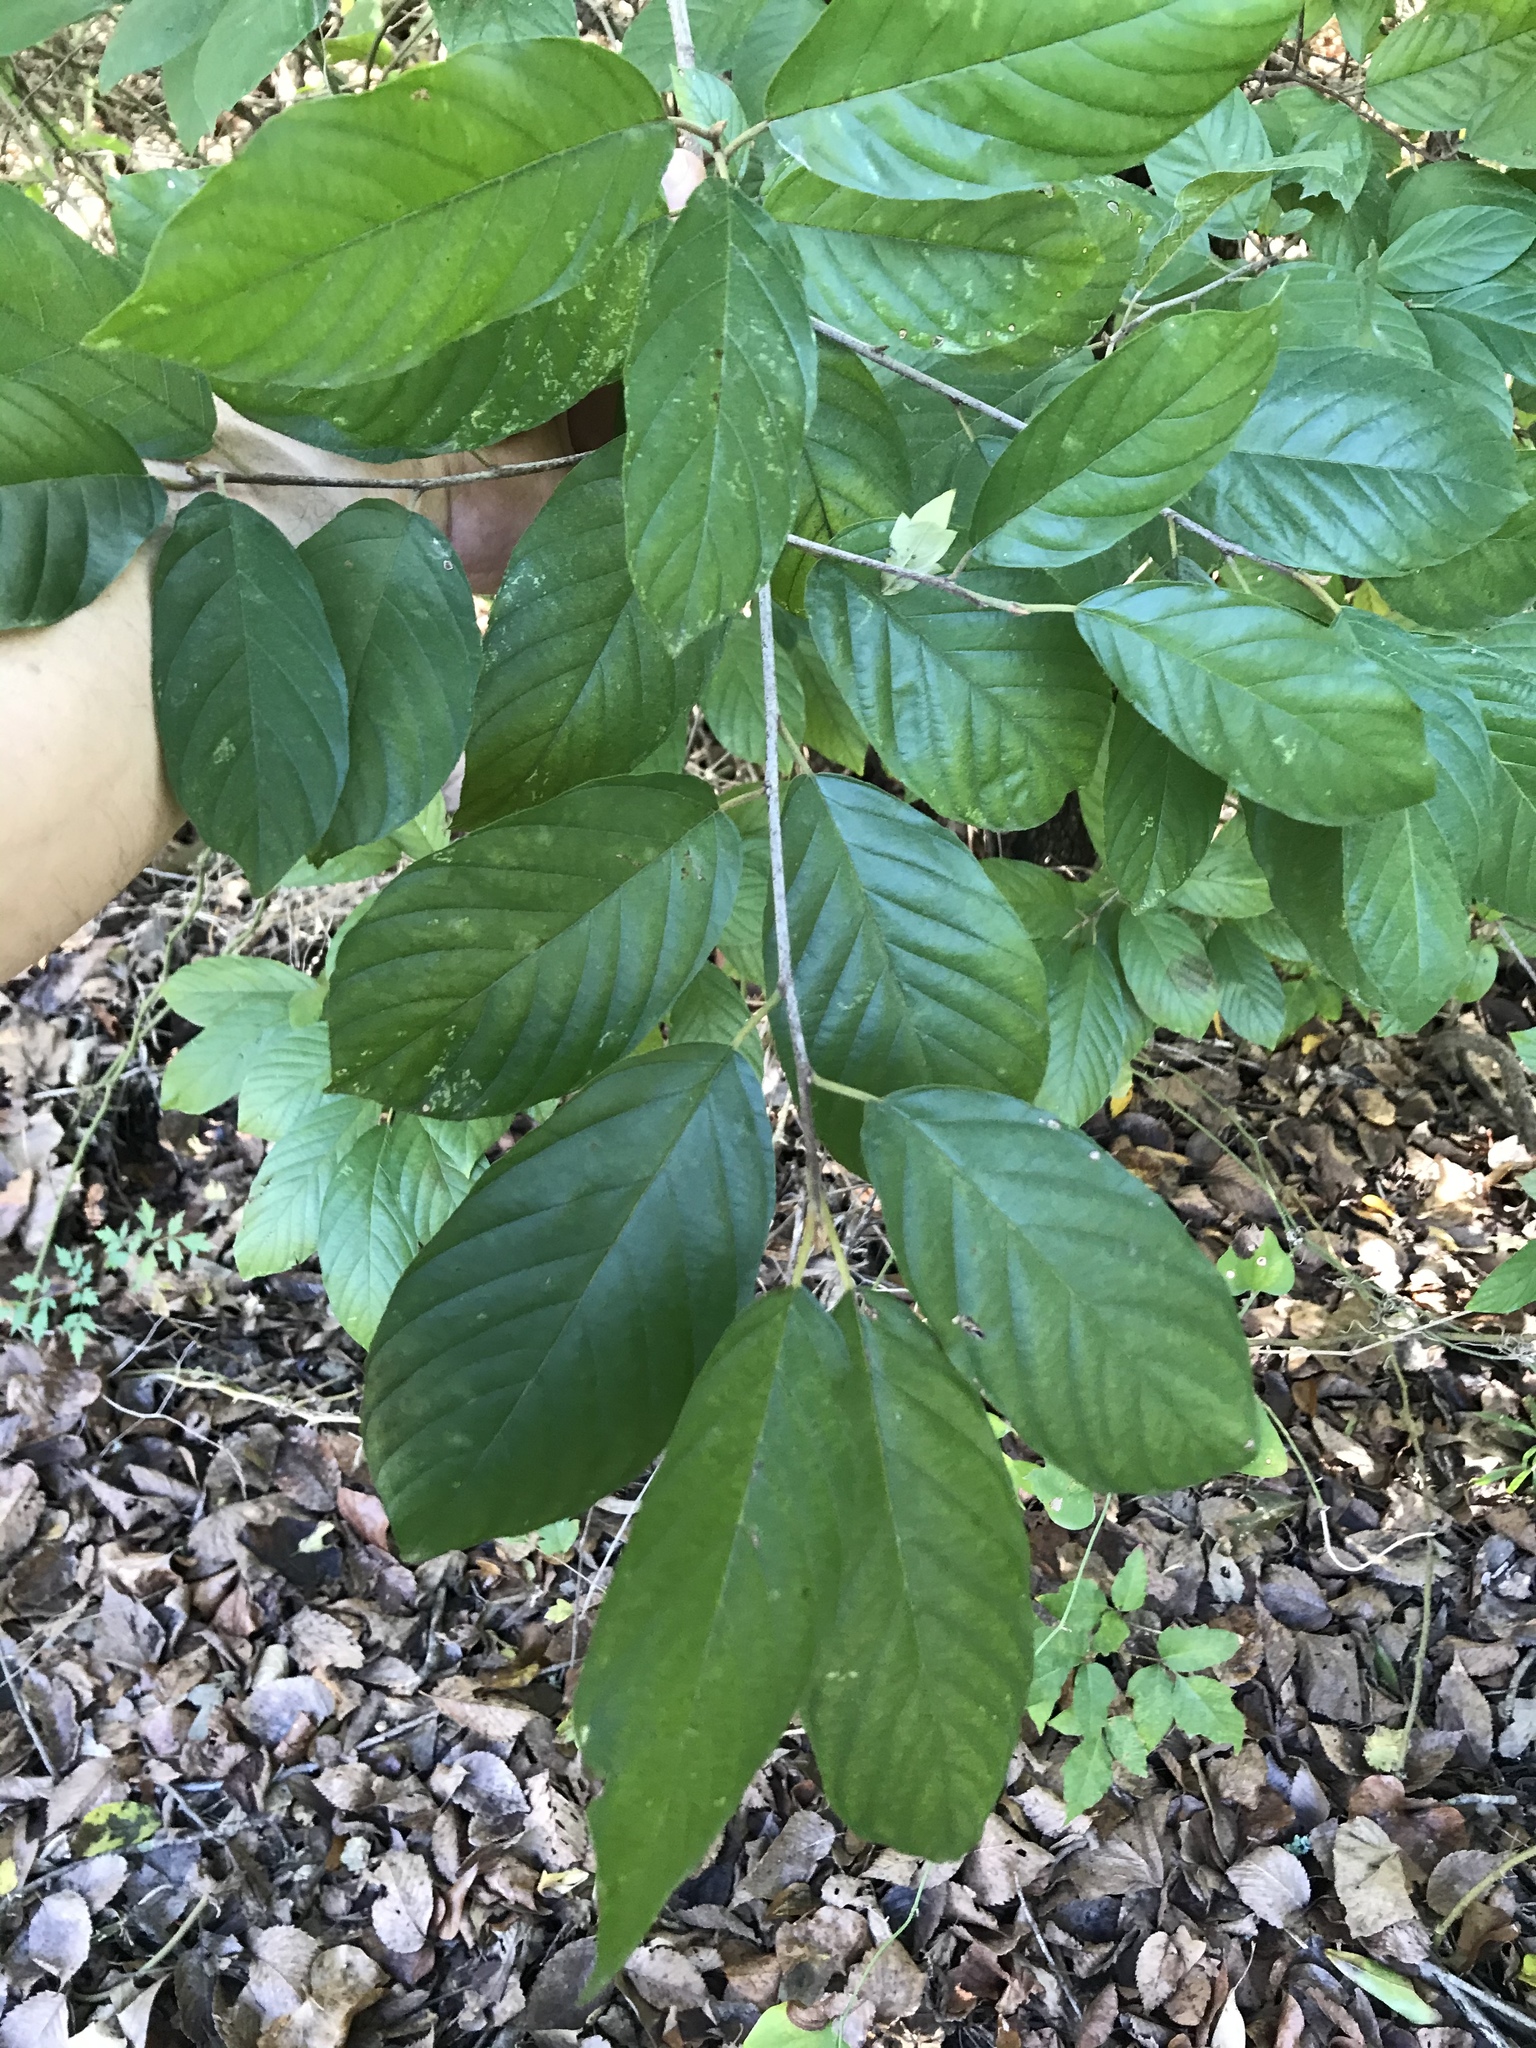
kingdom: Plantae
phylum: Tracheophyta
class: Magnoliopsida
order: Rosales
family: Rhamnaceae
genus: Frangula
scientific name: Frangula caroliniana
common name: Carolina buckthorn
